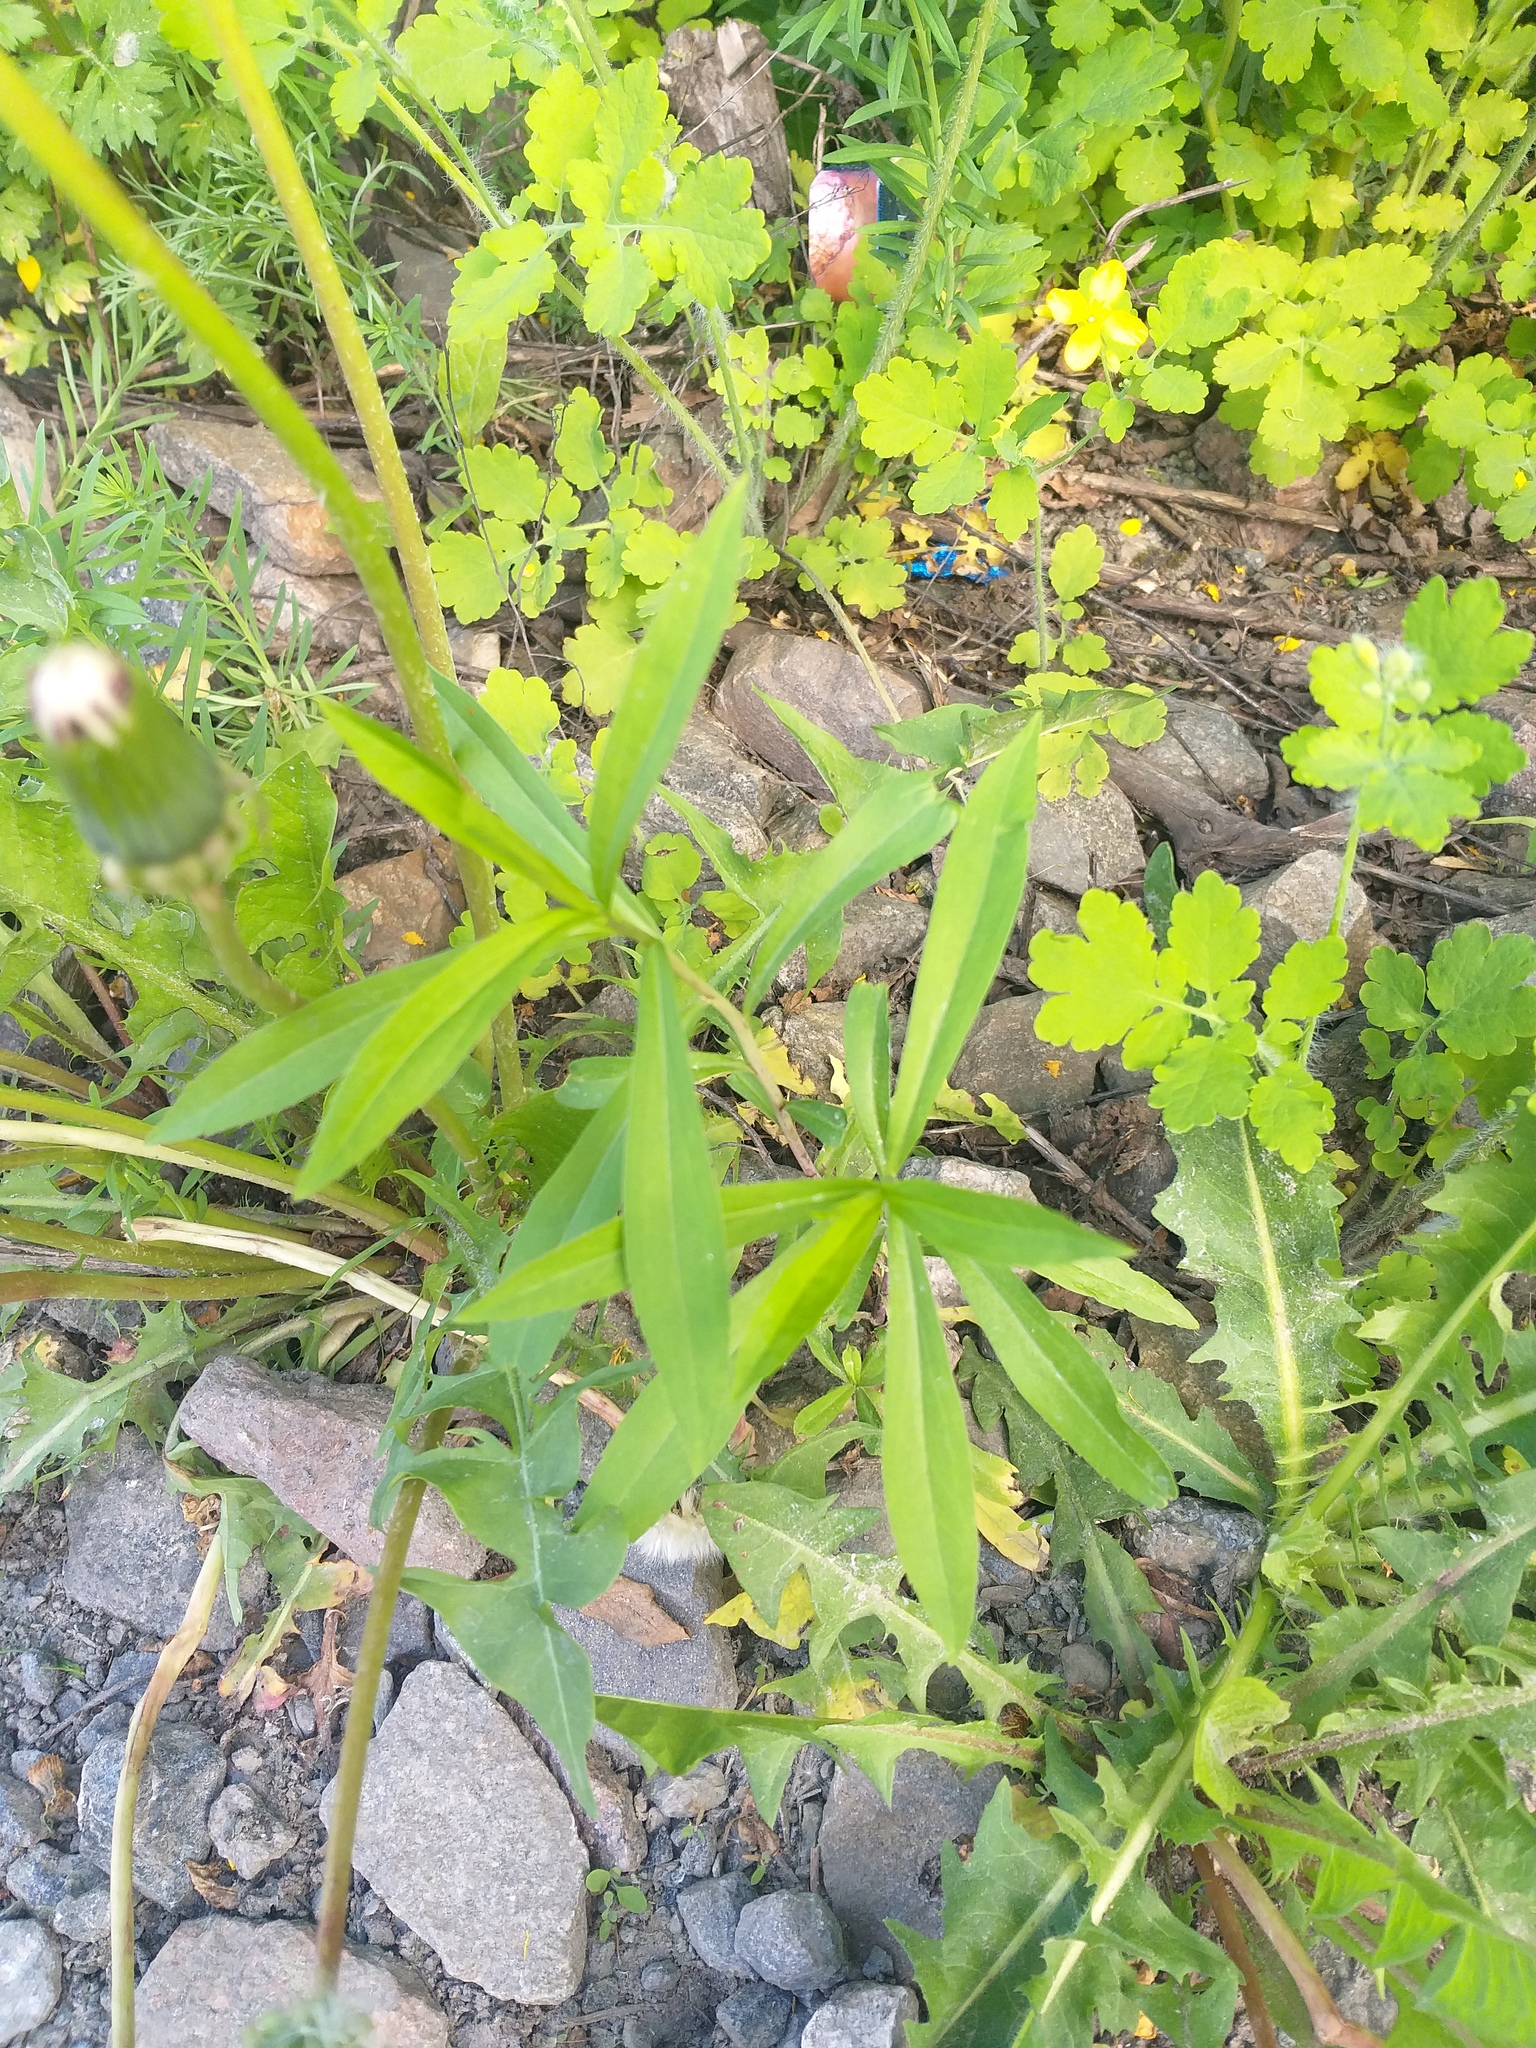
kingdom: Plantae
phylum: Tracheophyta
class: Magnoliopsida
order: Asterales
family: Asteraceae
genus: Solidago
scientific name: Solidago gigantea
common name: Giant goldenrod
